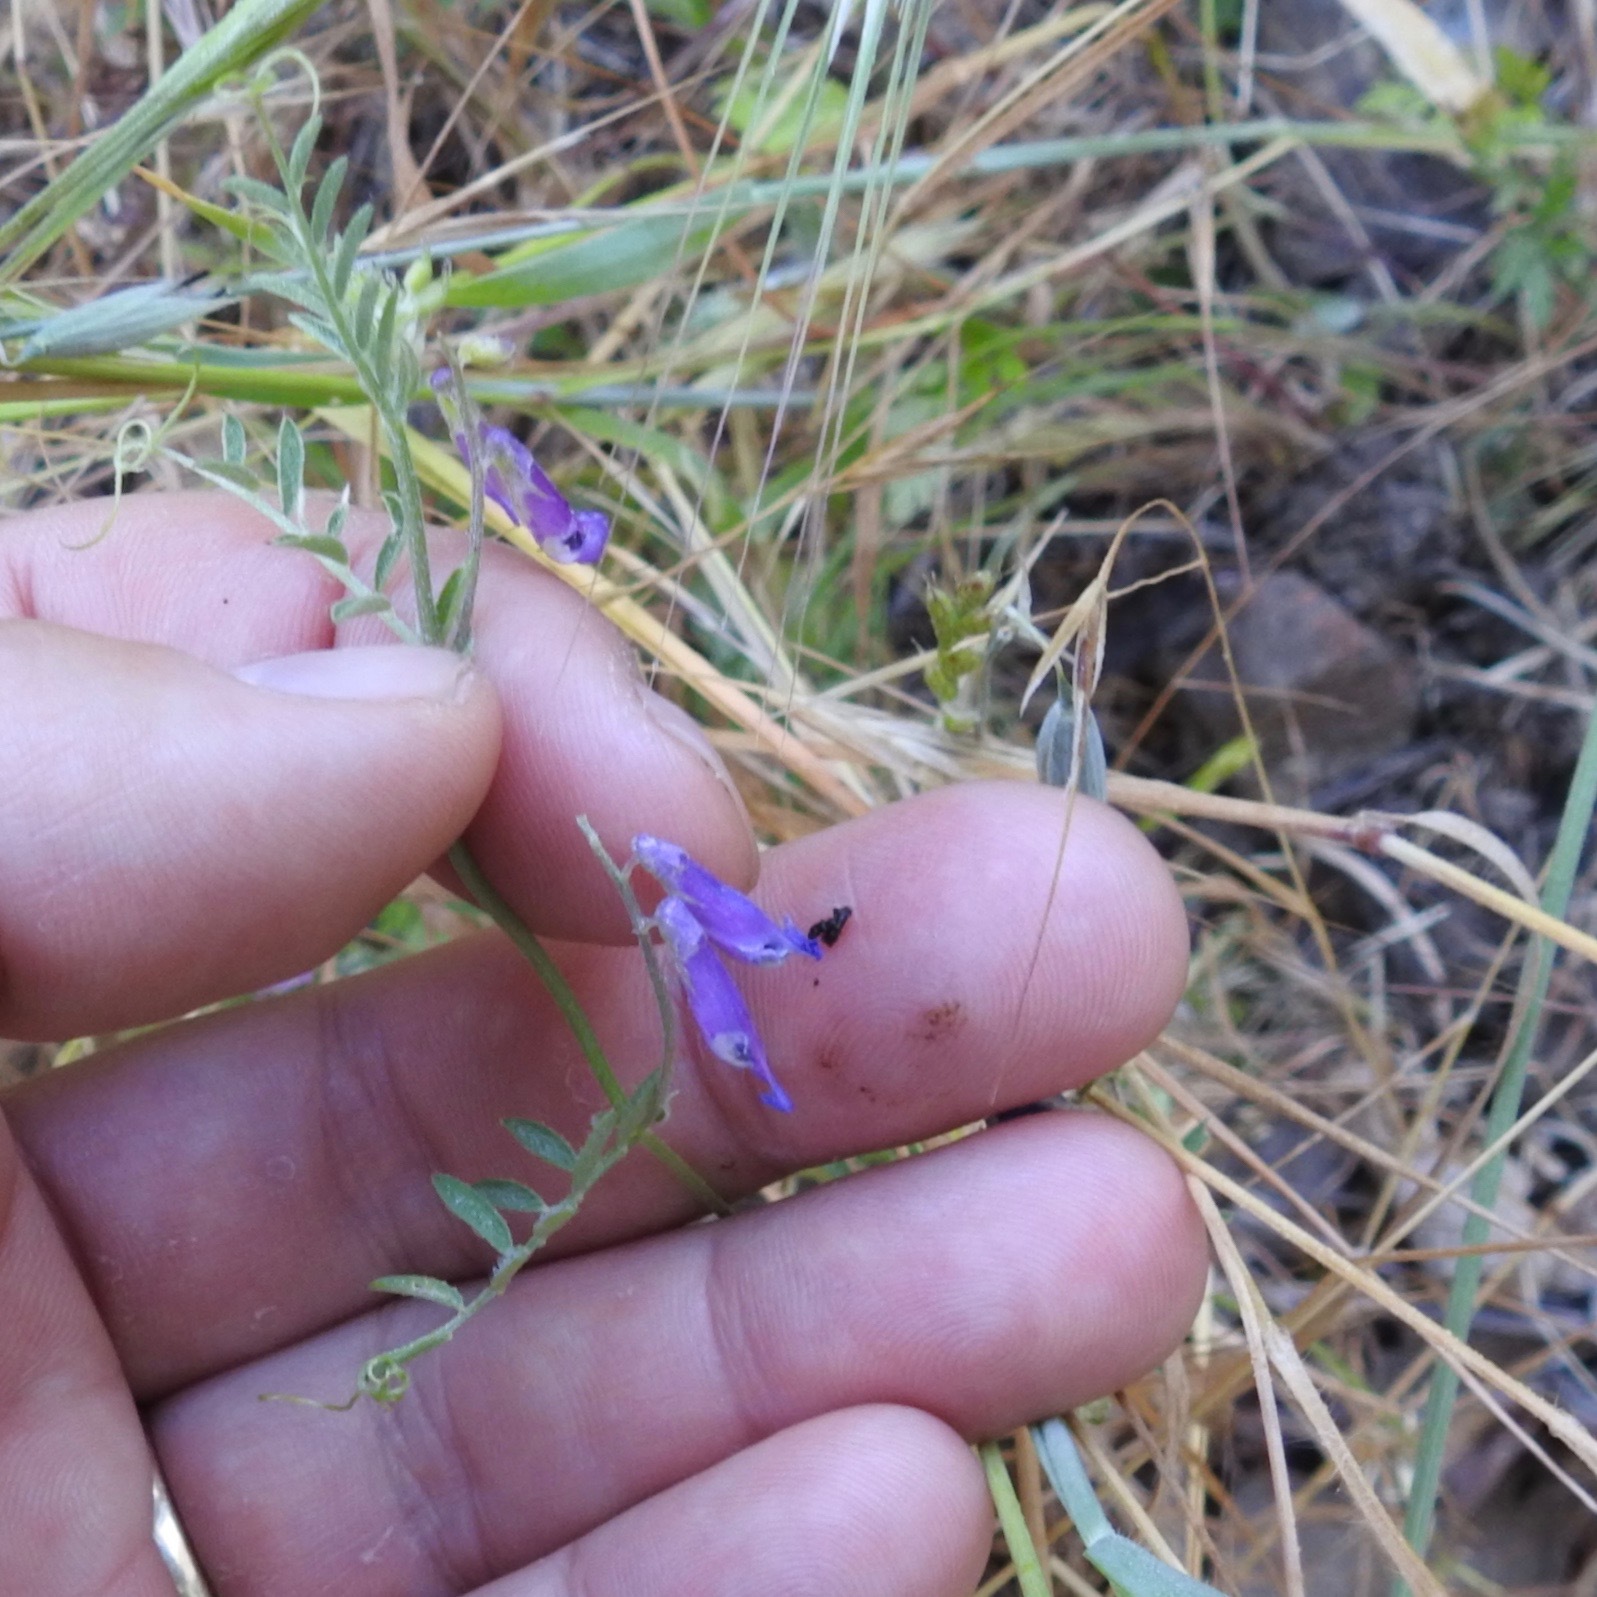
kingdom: Plantae
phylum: Tracheophyta
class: Magnoliopsida
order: Fabales
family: Fabaceae
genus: Vicia
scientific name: Vicia villosa
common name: Fodder vetch
